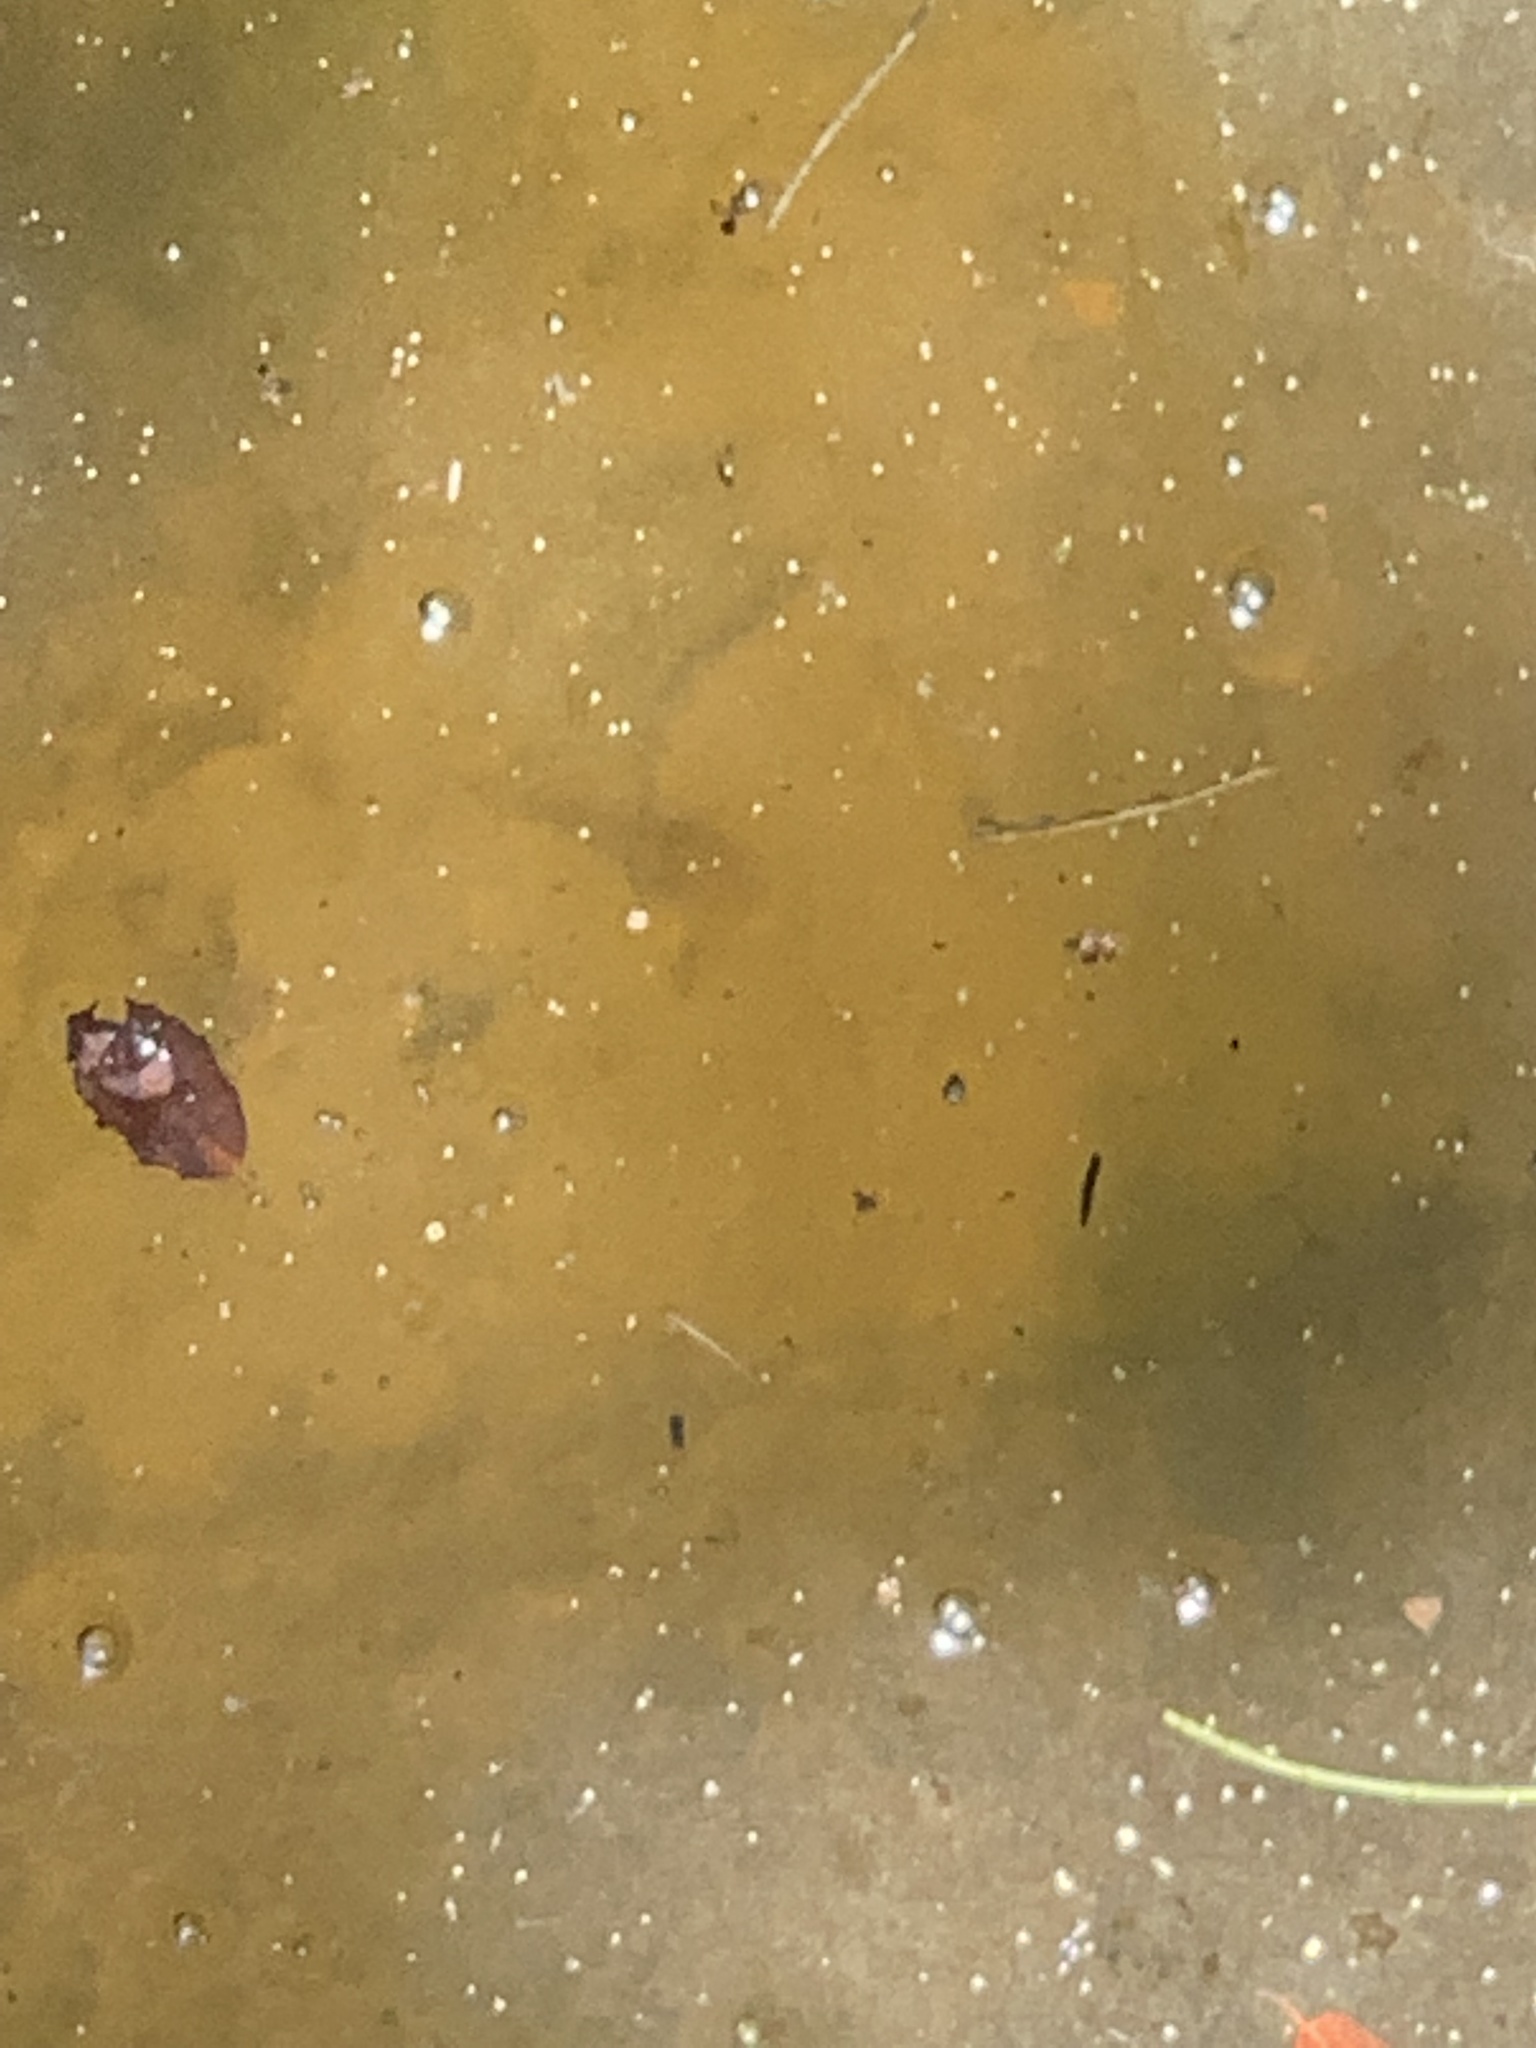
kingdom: Animalia
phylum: Chordata
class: Amphibia
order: Anura
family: Alytidae
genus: Alytes
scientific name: Alytes obstetricans
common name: Midwife toad
